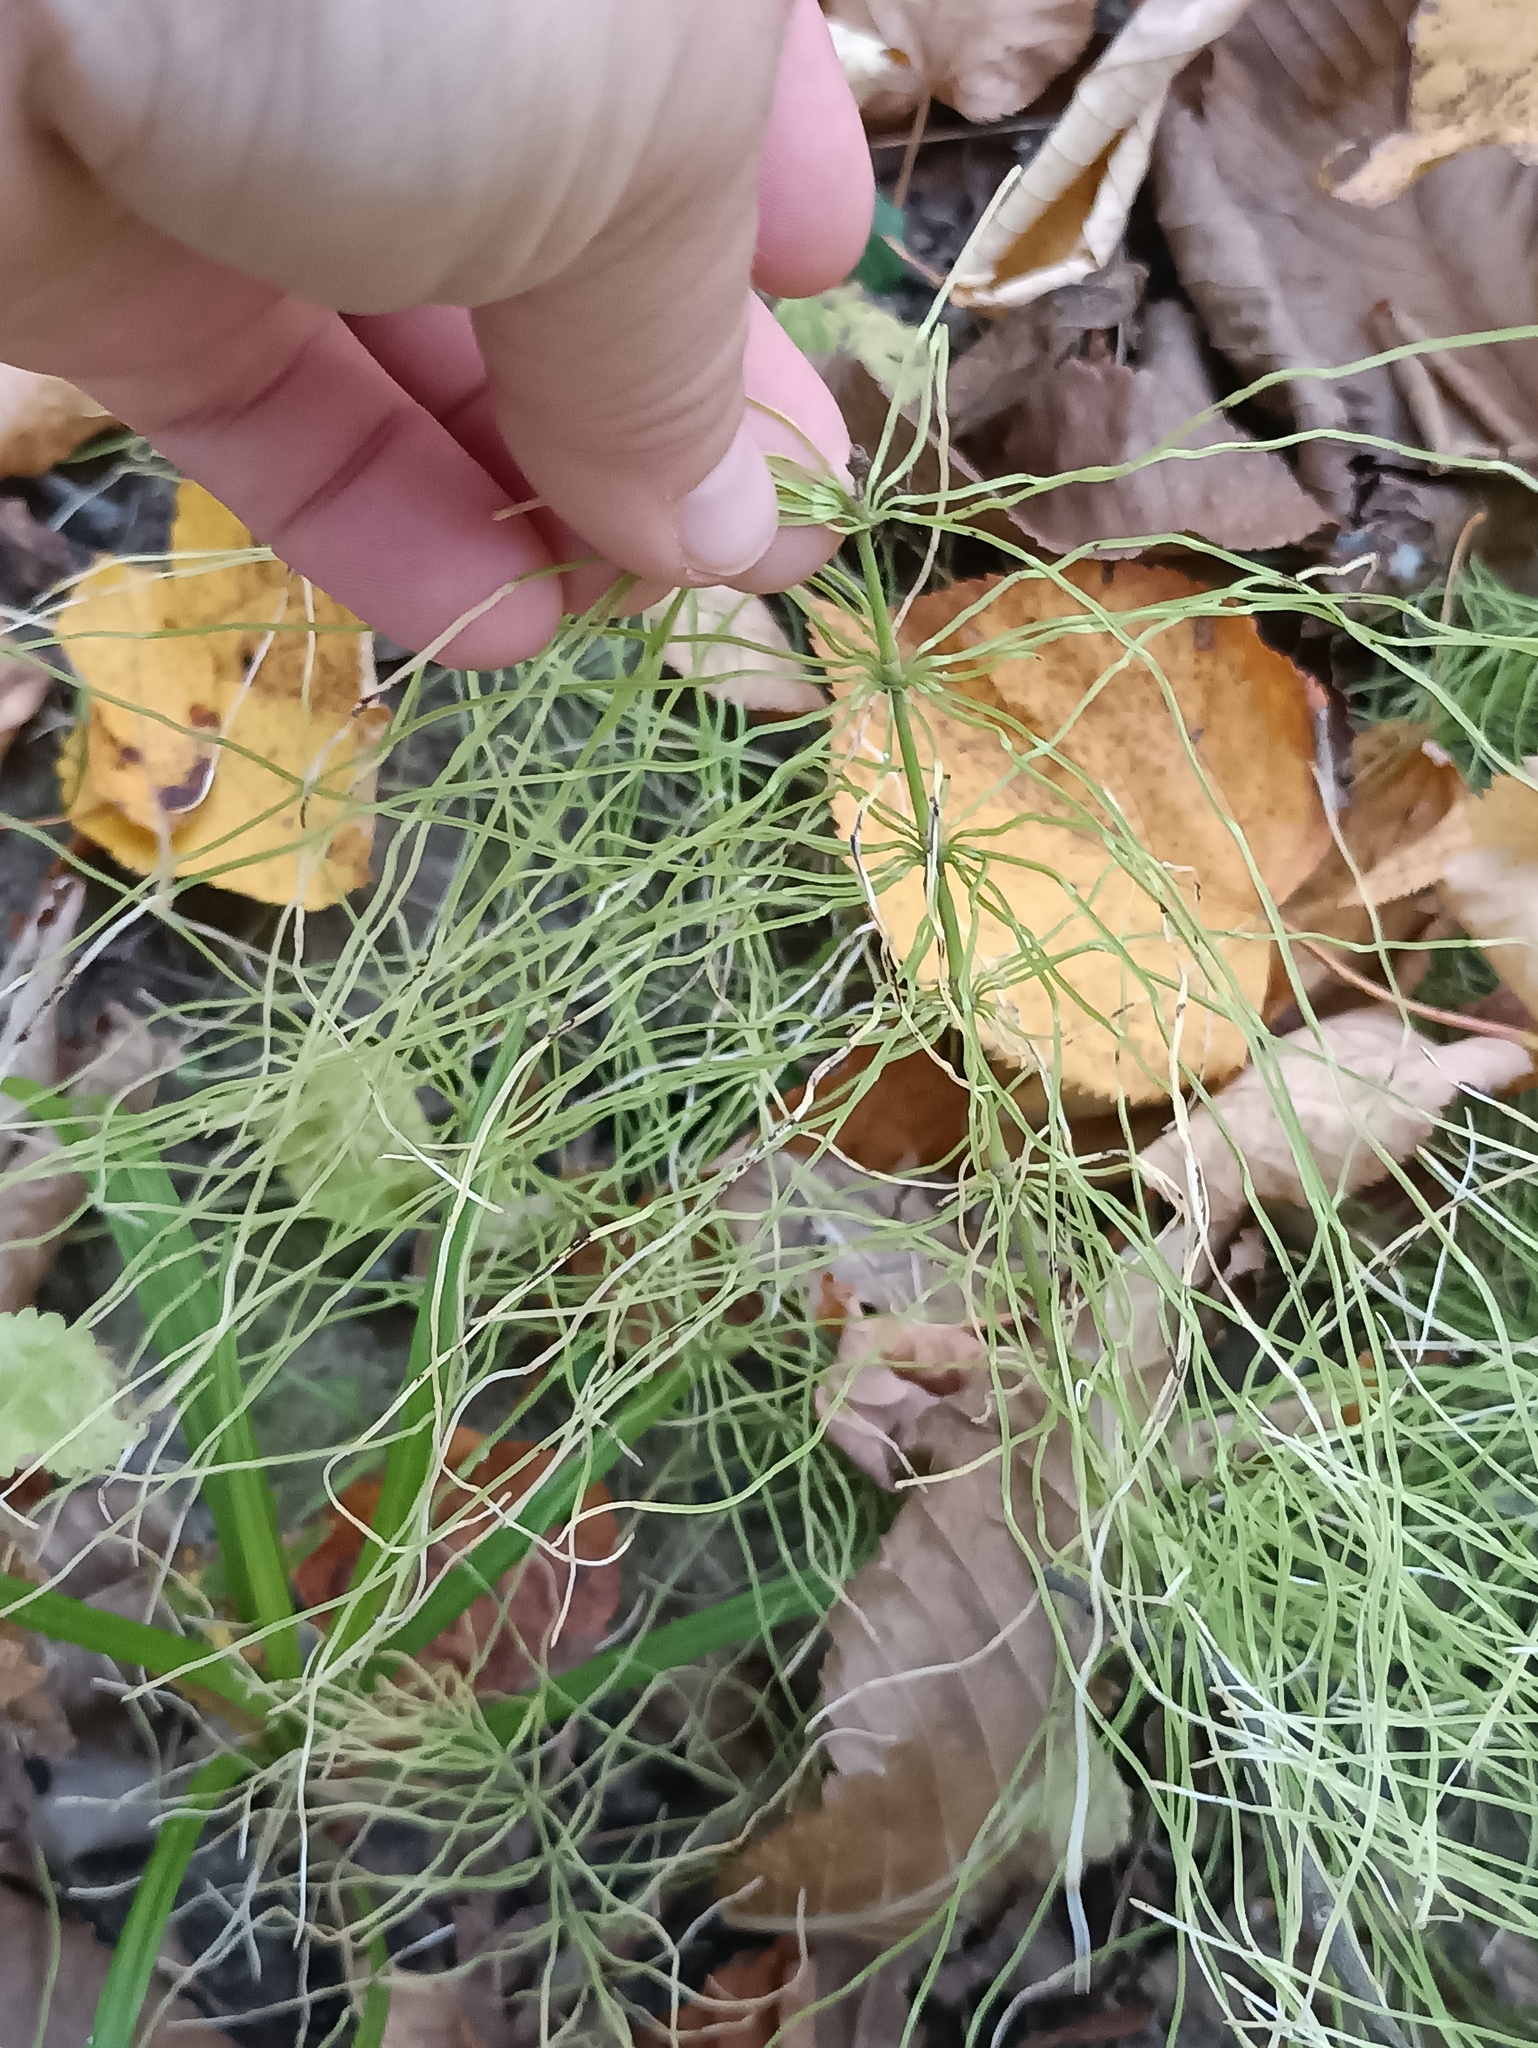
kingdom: Plantae
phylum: Tracheophyta
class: Polypodiopsida
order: Equisetales
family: Equisetaceae
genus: Equisetum
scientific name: Equisetum pratense
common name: Meadow horsetail
